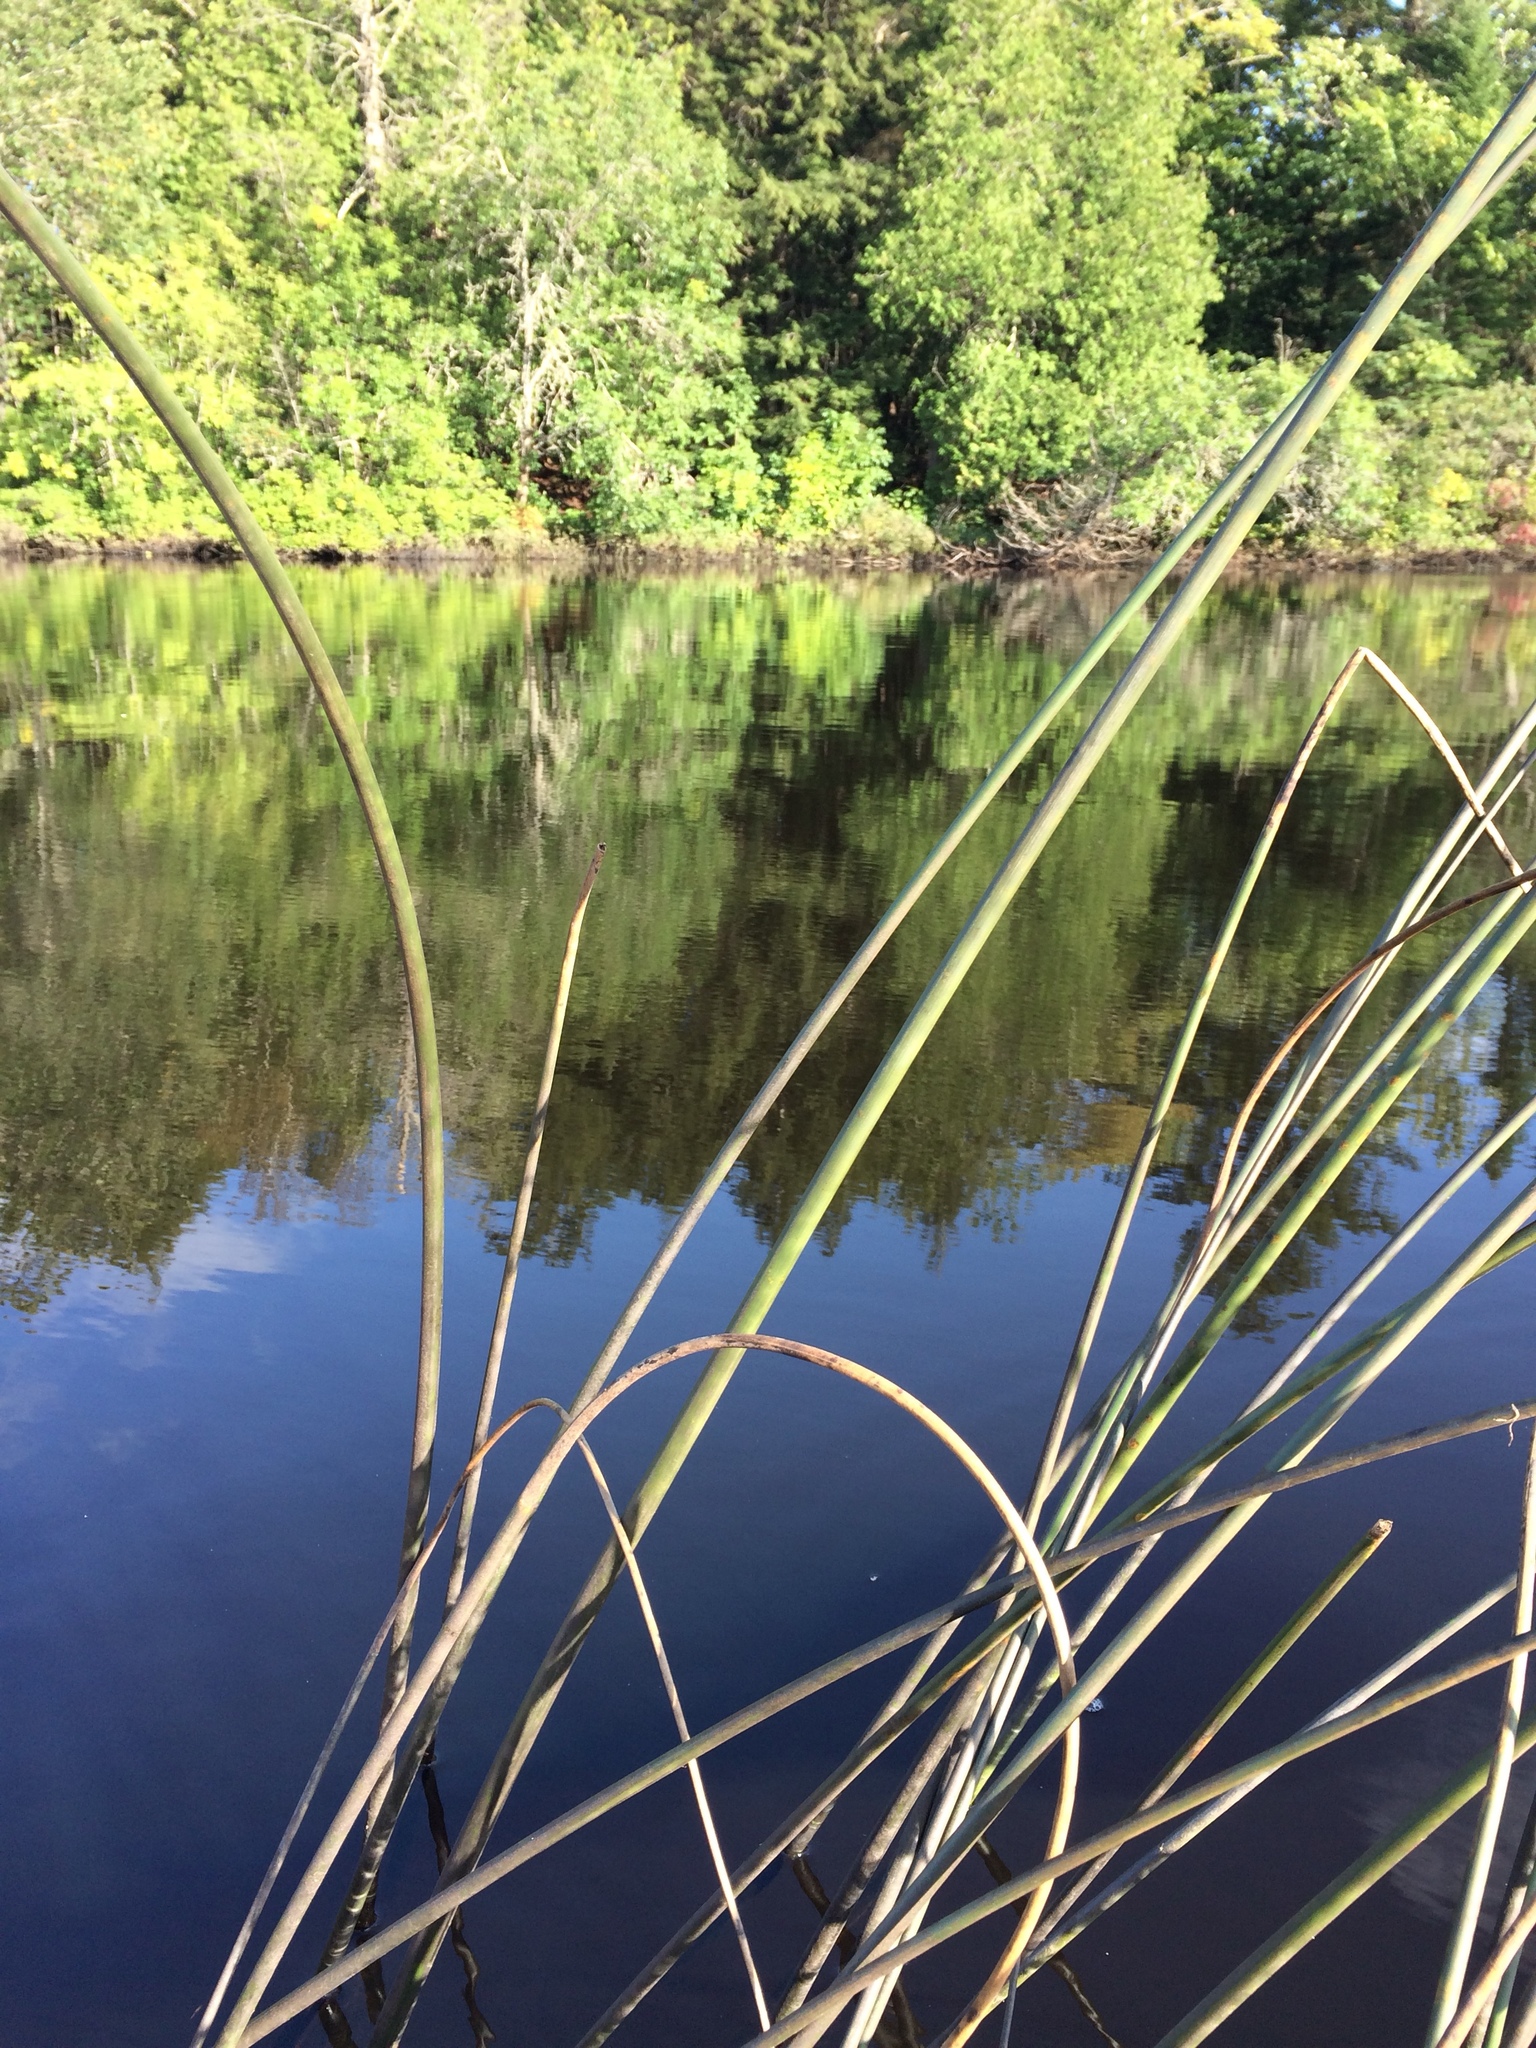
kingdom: Plantae
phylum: Tracheophyta
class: Liliopsida
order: Poales
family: Cyperaceae
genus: Schoenoplectus
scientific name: Schoenoplectus acutus
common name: Hardstem bulrush
